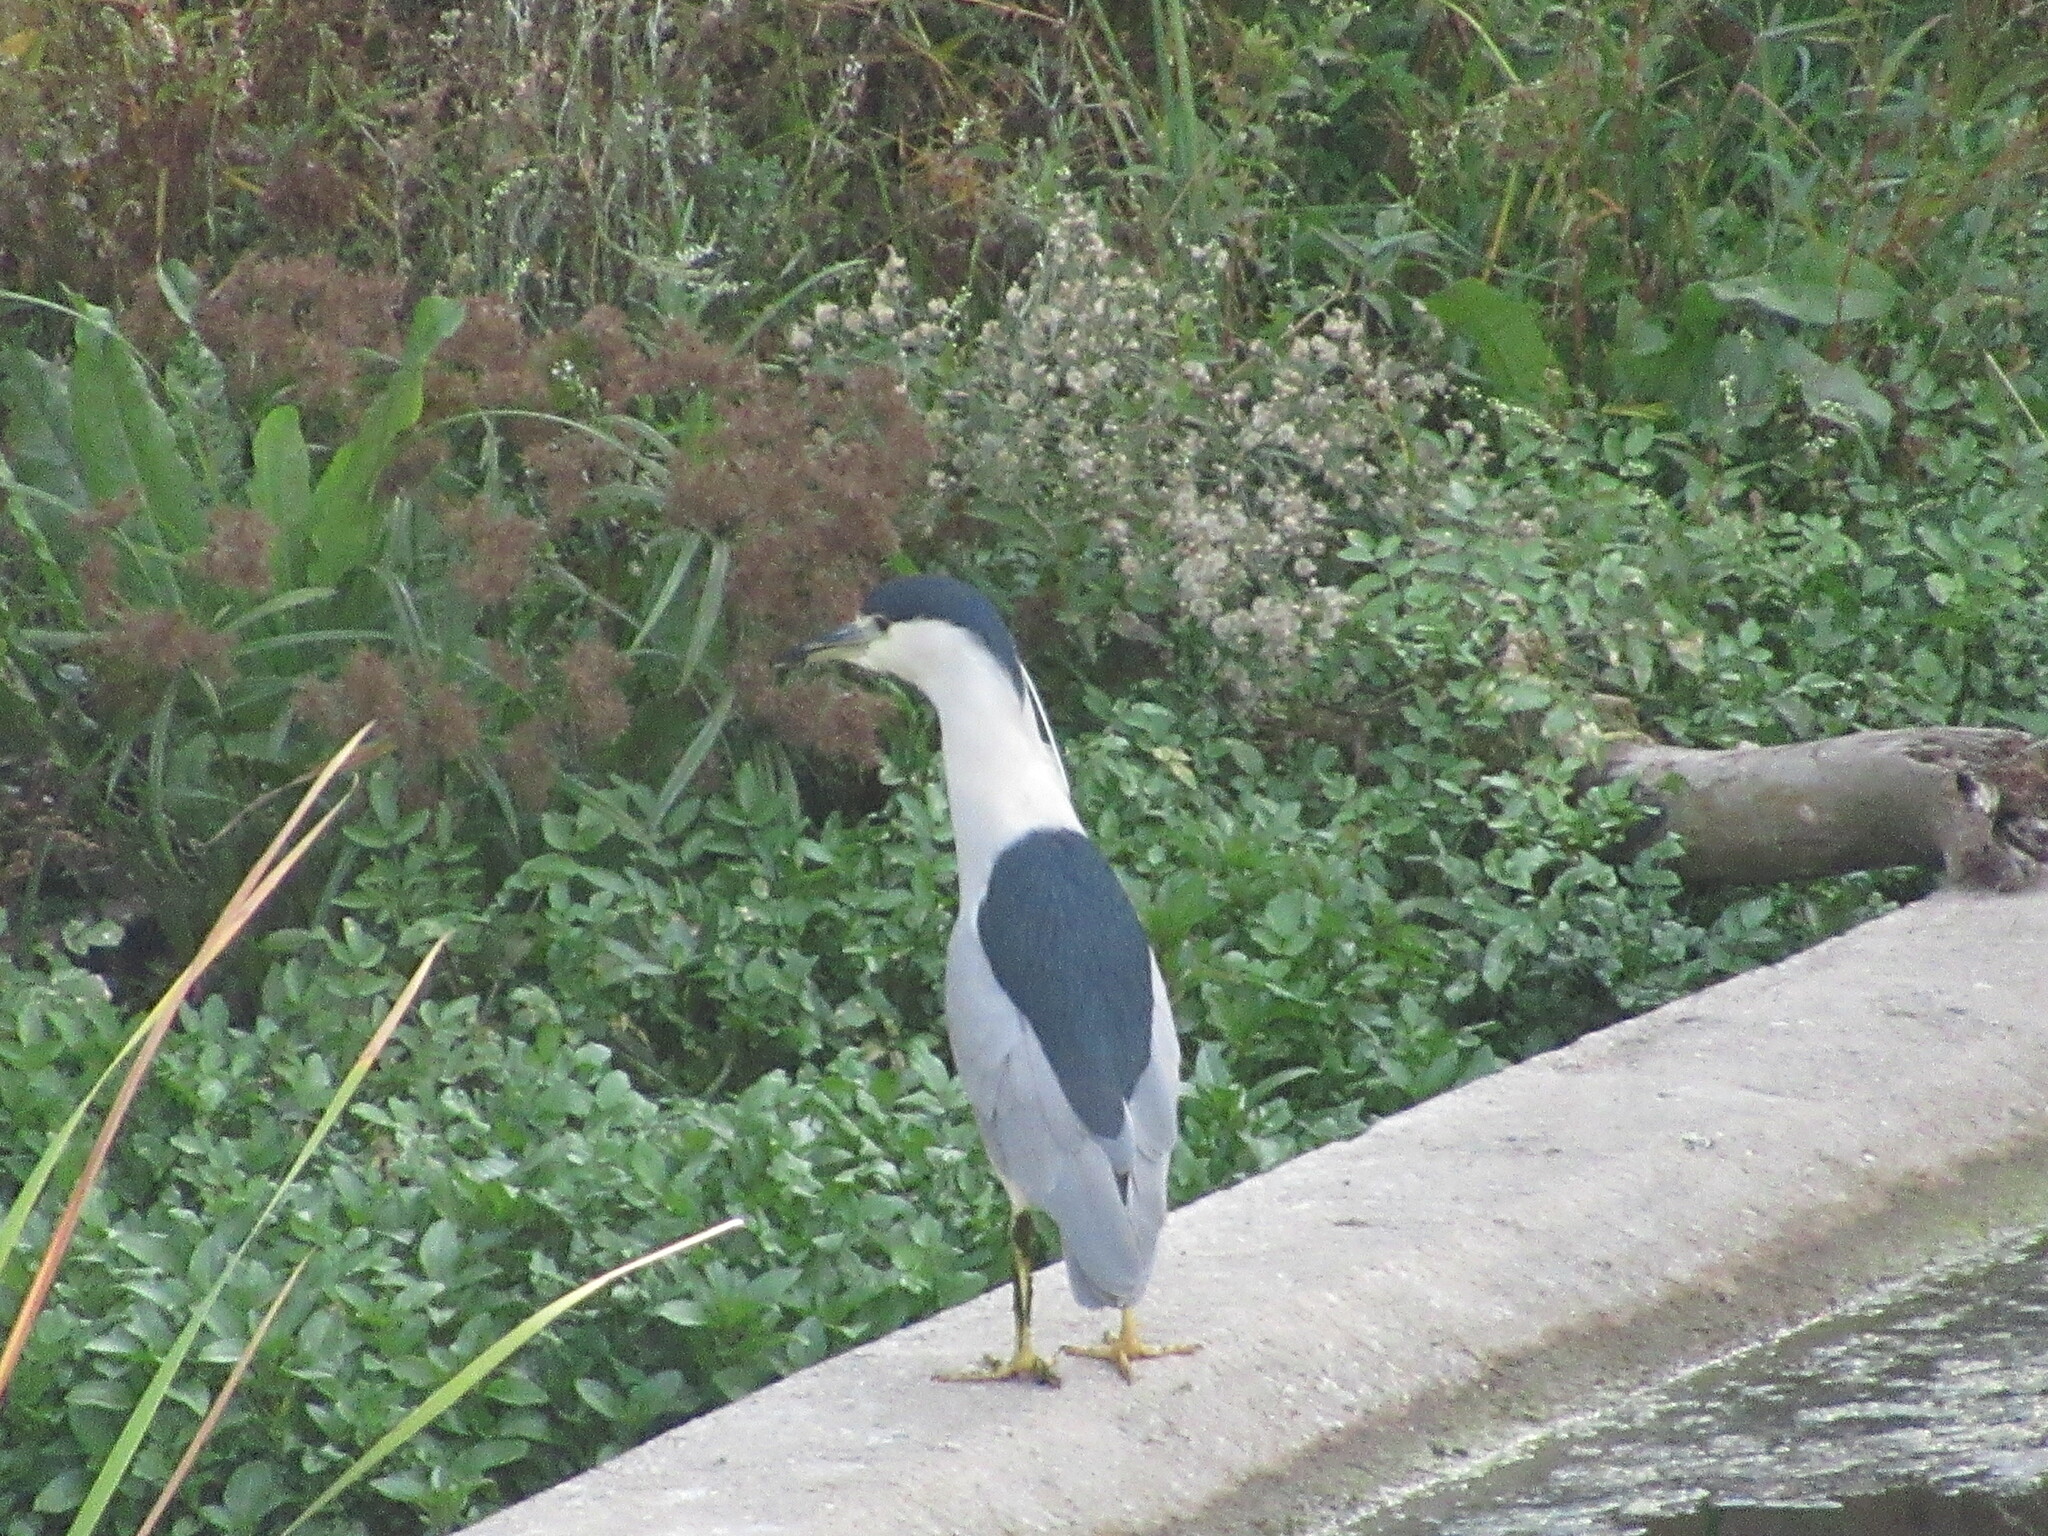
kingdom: Animalia
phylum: Chordata
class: Aves
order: Pelecaniformes
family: Ardeidae
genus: Nycticorax
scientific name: Nycticorax nycticorax
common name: Black-crowned night heron
